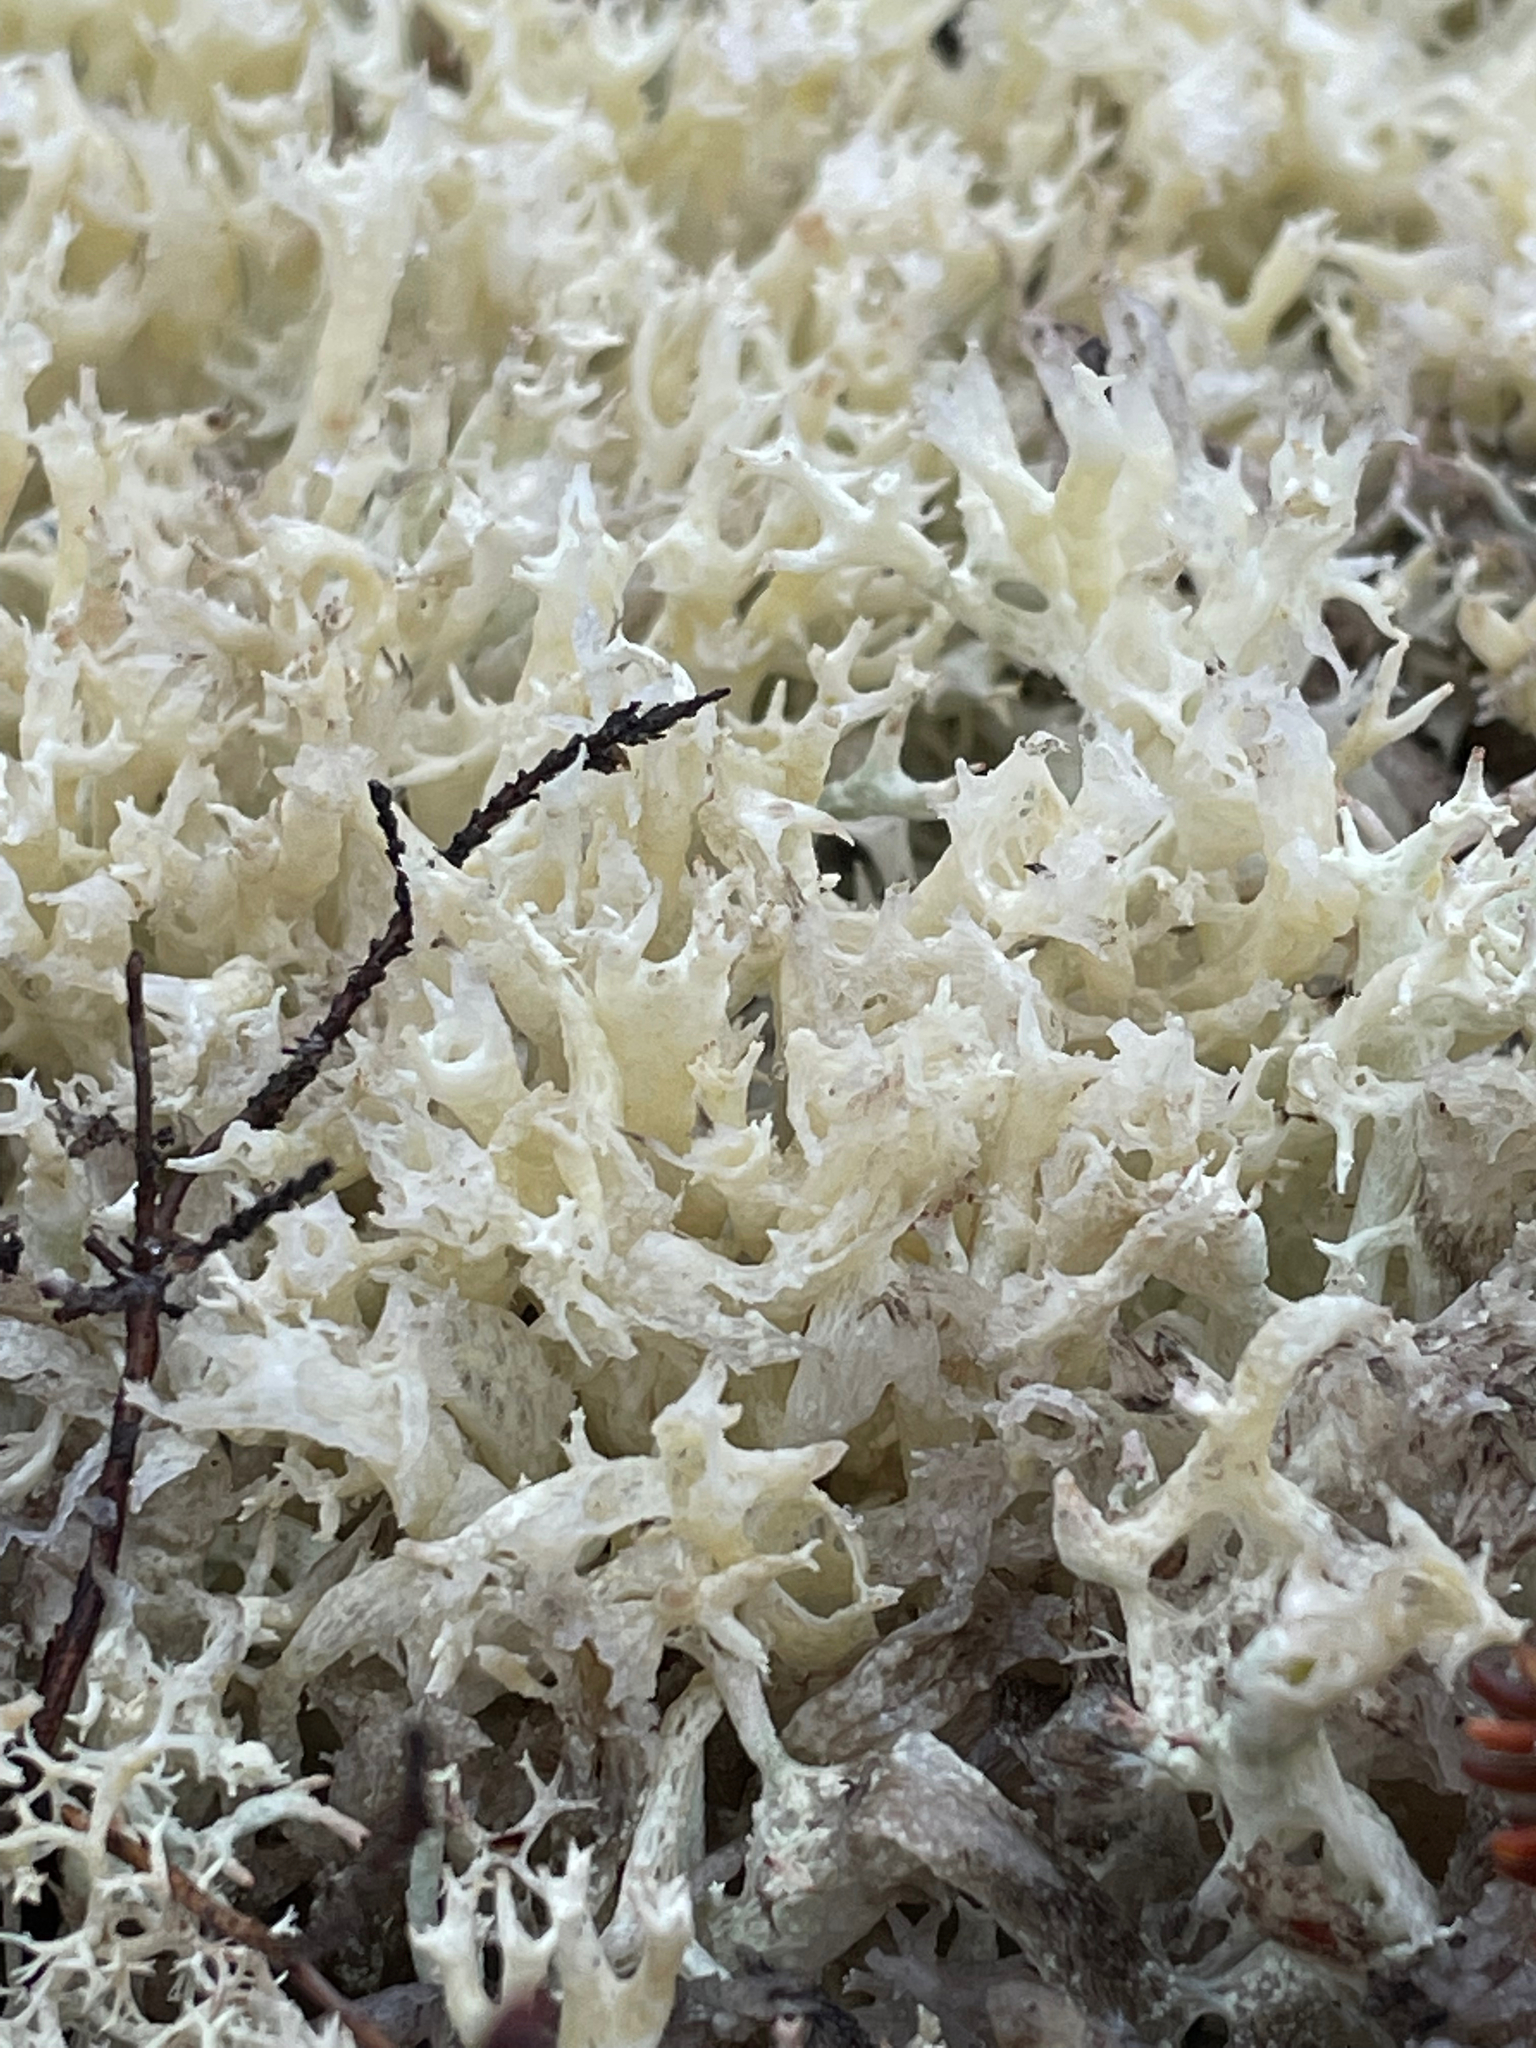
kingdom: Fungi
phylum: Ascomycota
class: Lecanoromycetes
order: Lecanorales
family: Cladoniaceae
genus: Cladonia
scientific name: Cladonia boryi
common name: Fishnet cladonia
